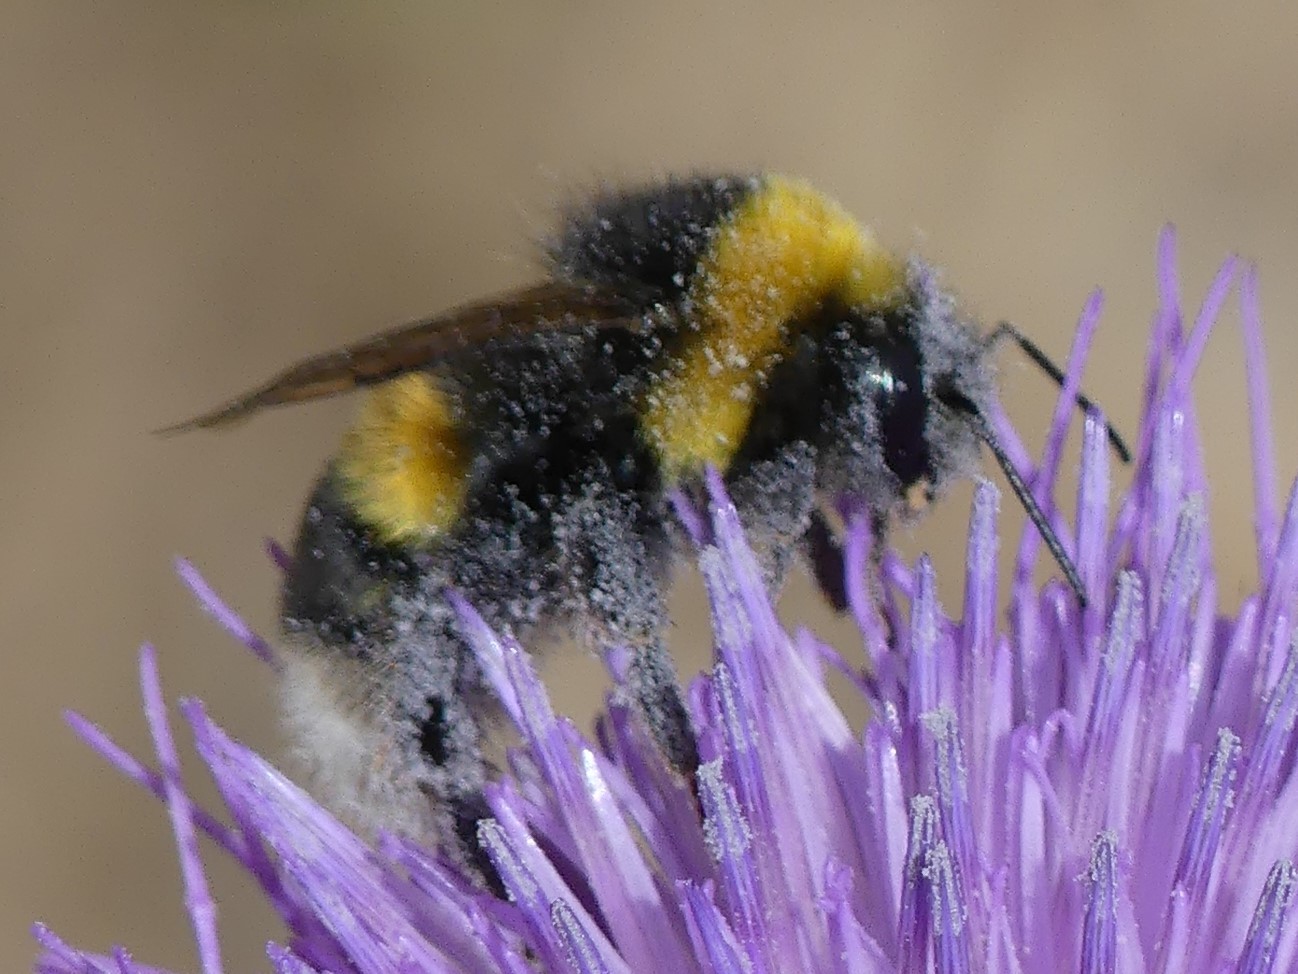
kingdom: Animalia
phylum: Arthropoda
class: Insecta
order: Hymenoptera
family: Apidae
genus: Bombus
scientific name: Bombus terrestris
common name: Buff-tailed bumblebee
